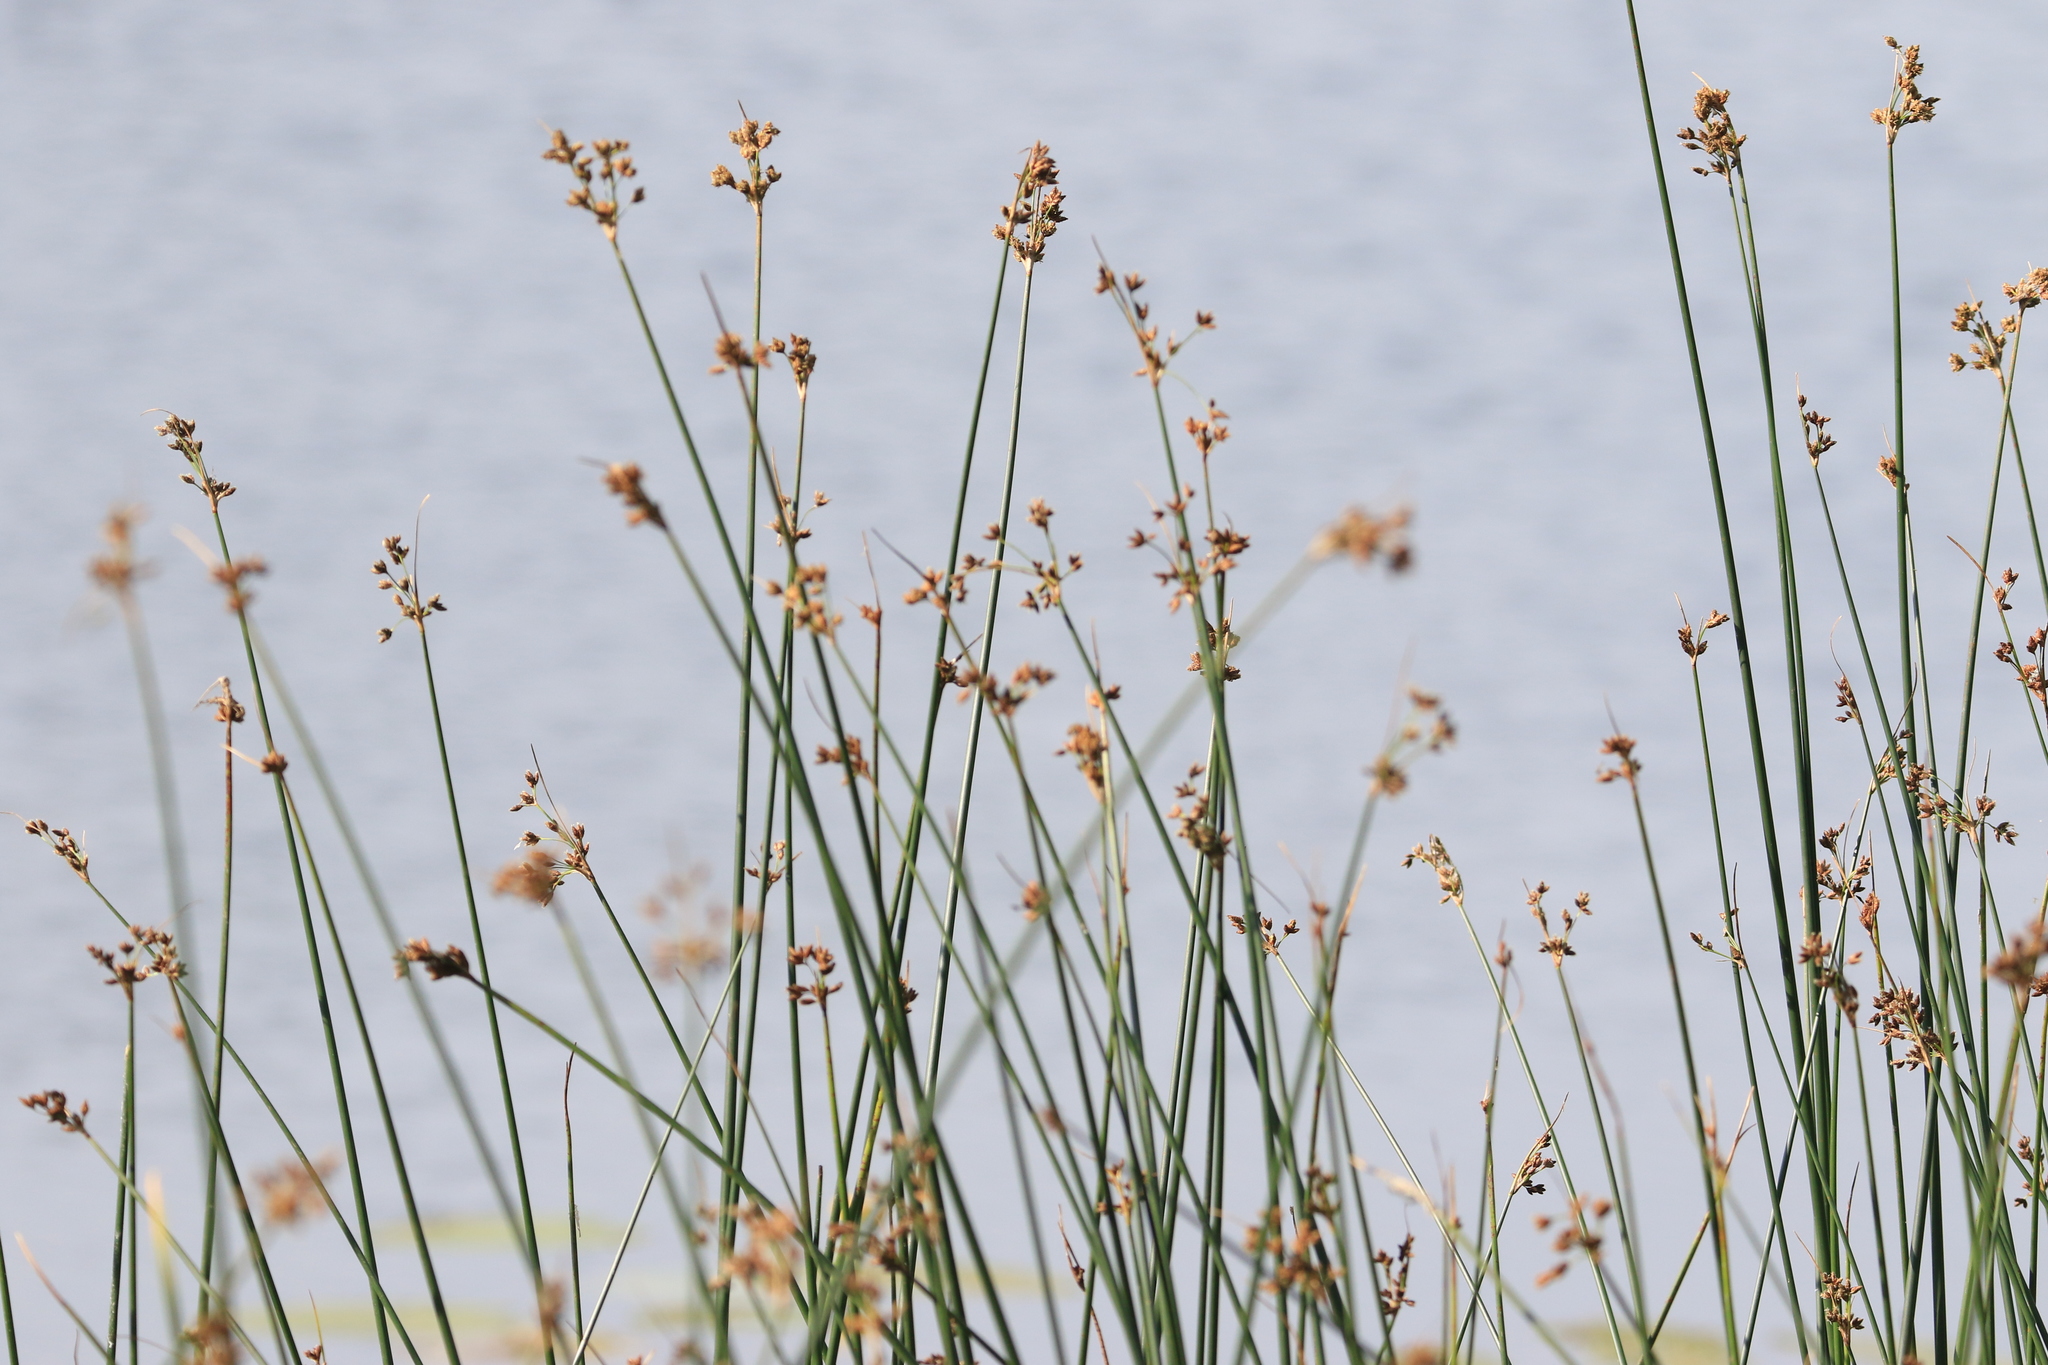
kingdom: Plantae
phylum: Tracheophyta
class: Liliopsida
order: Poales
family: Cyperaceae
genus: Schoenoplectus
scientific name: Schoenoplectus lacustris
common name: Common club-rush
